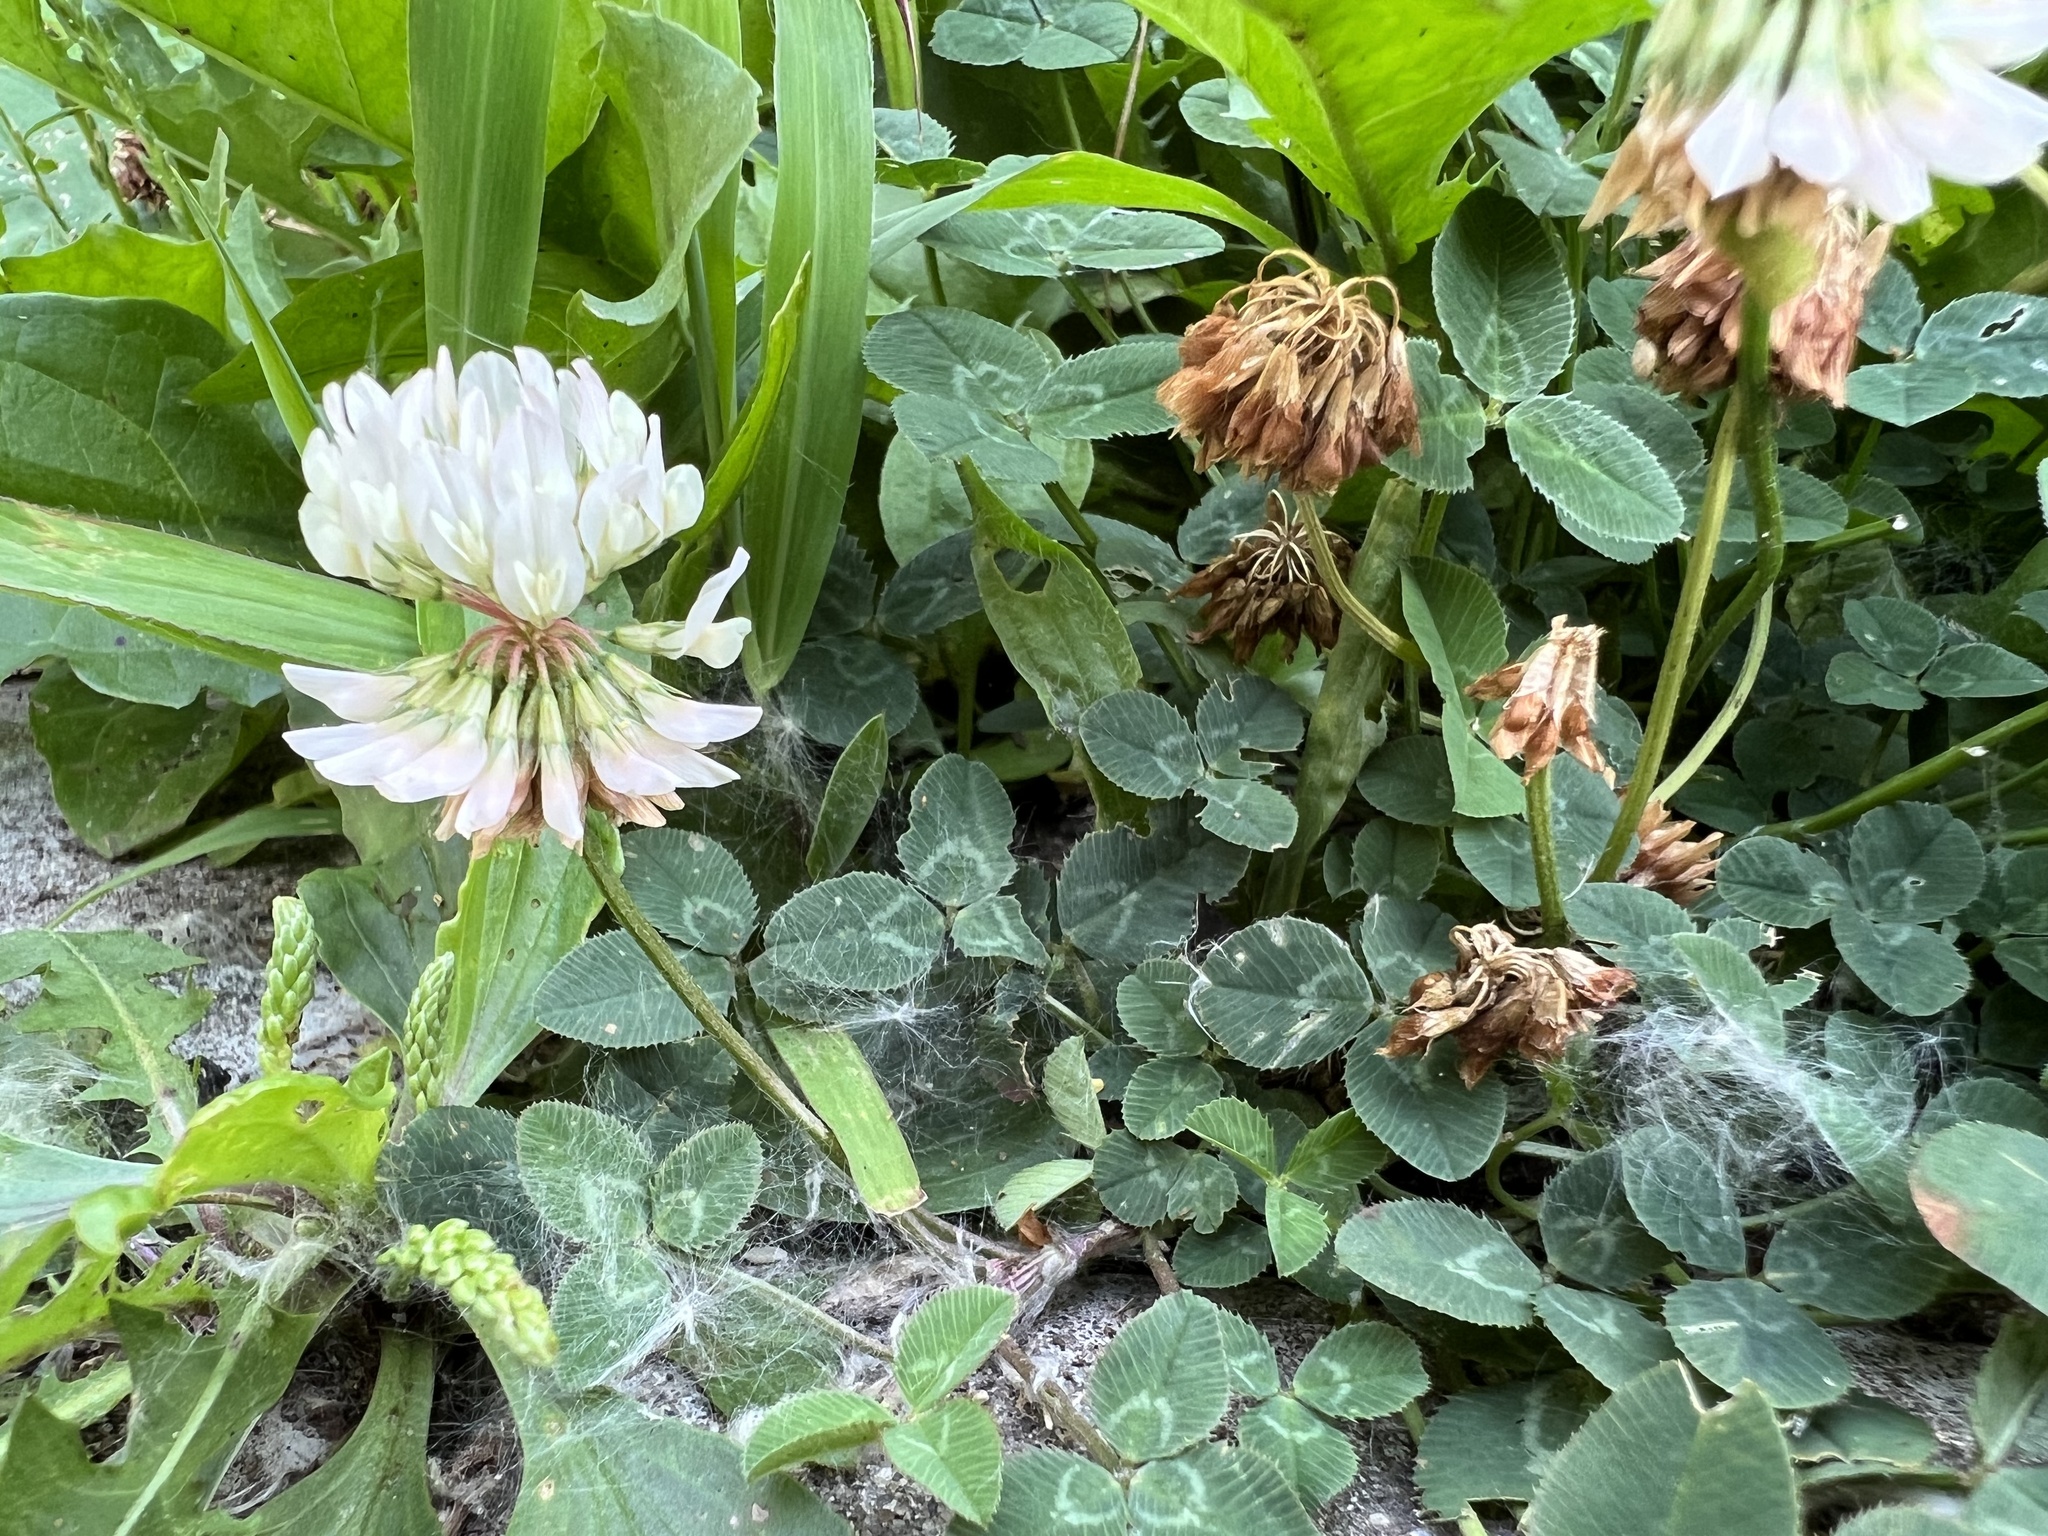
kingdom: Plantae
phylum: Tracheophyta
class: Magnoliopsida
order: Fabales
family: Fabaceae
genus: Trifolium
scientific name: Trifolium repens
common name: White clover
